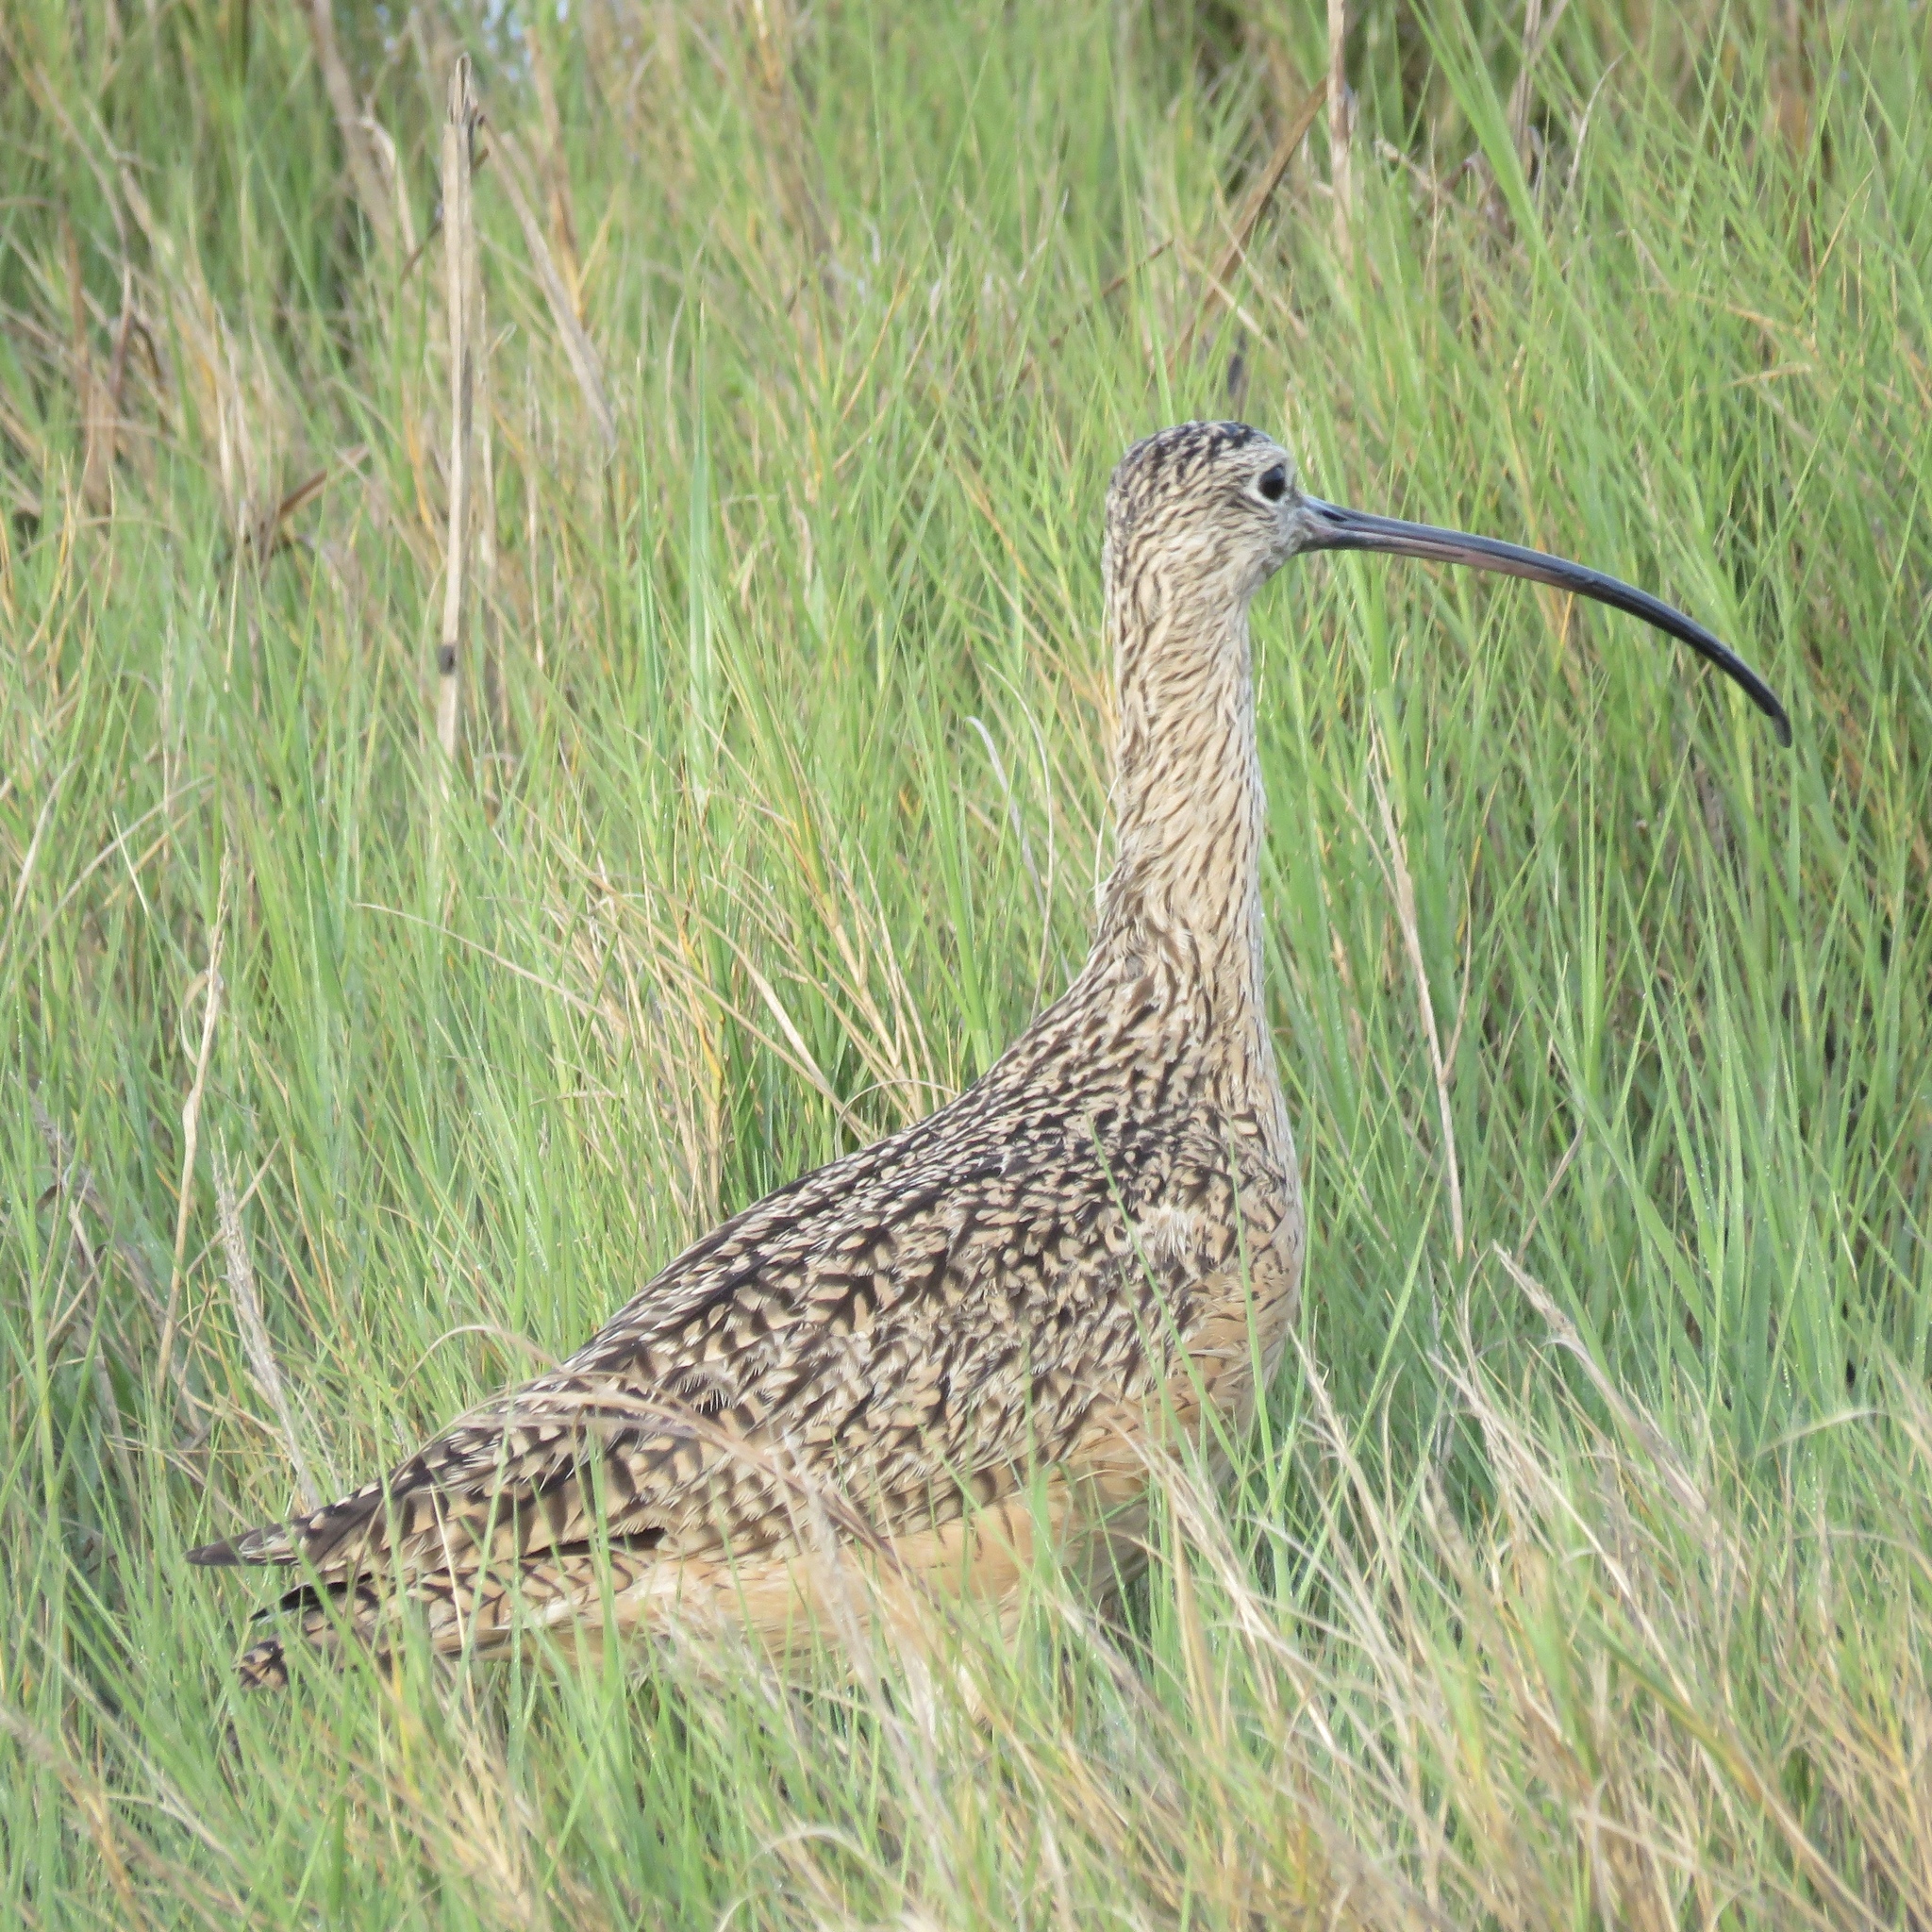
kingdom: Animalia
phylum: Chordata
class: Aves
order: Charadriiformes
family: Scolopacidae
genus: Numenius
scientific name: Numenius americanus
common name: Long-billed curlew
